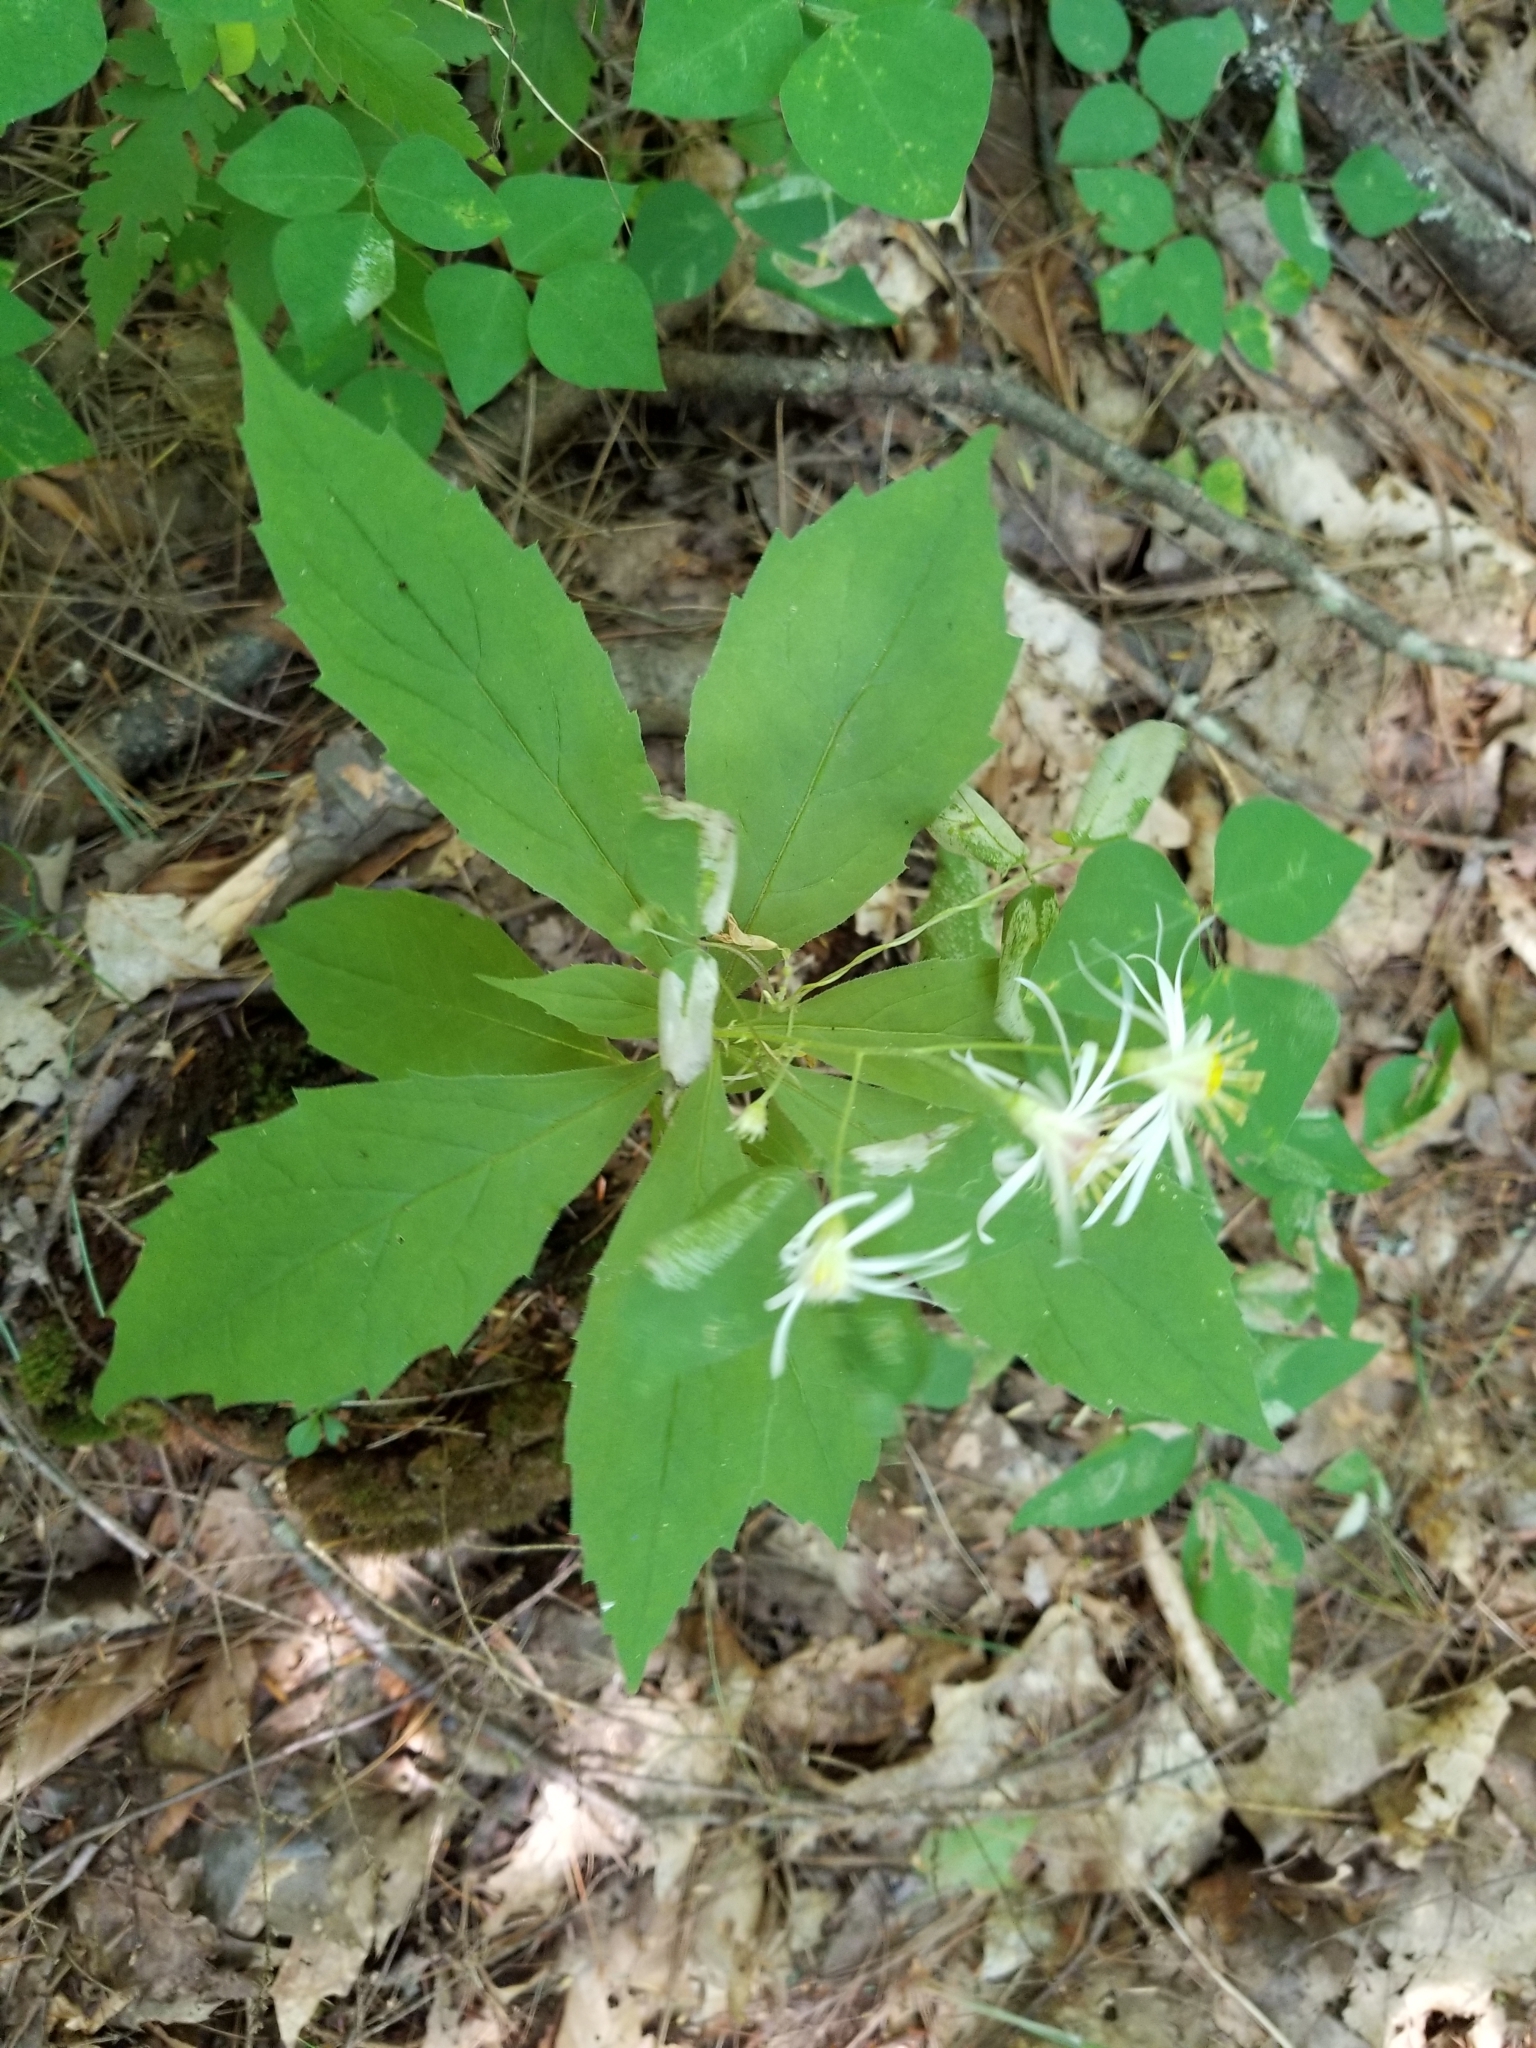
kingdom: Plantae
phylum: Tracheophyta
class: Magnoliopsida
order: Asterales
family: Asteraceae
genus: Oclemena
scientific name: Oclemena acuminata
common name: Mountain aster
